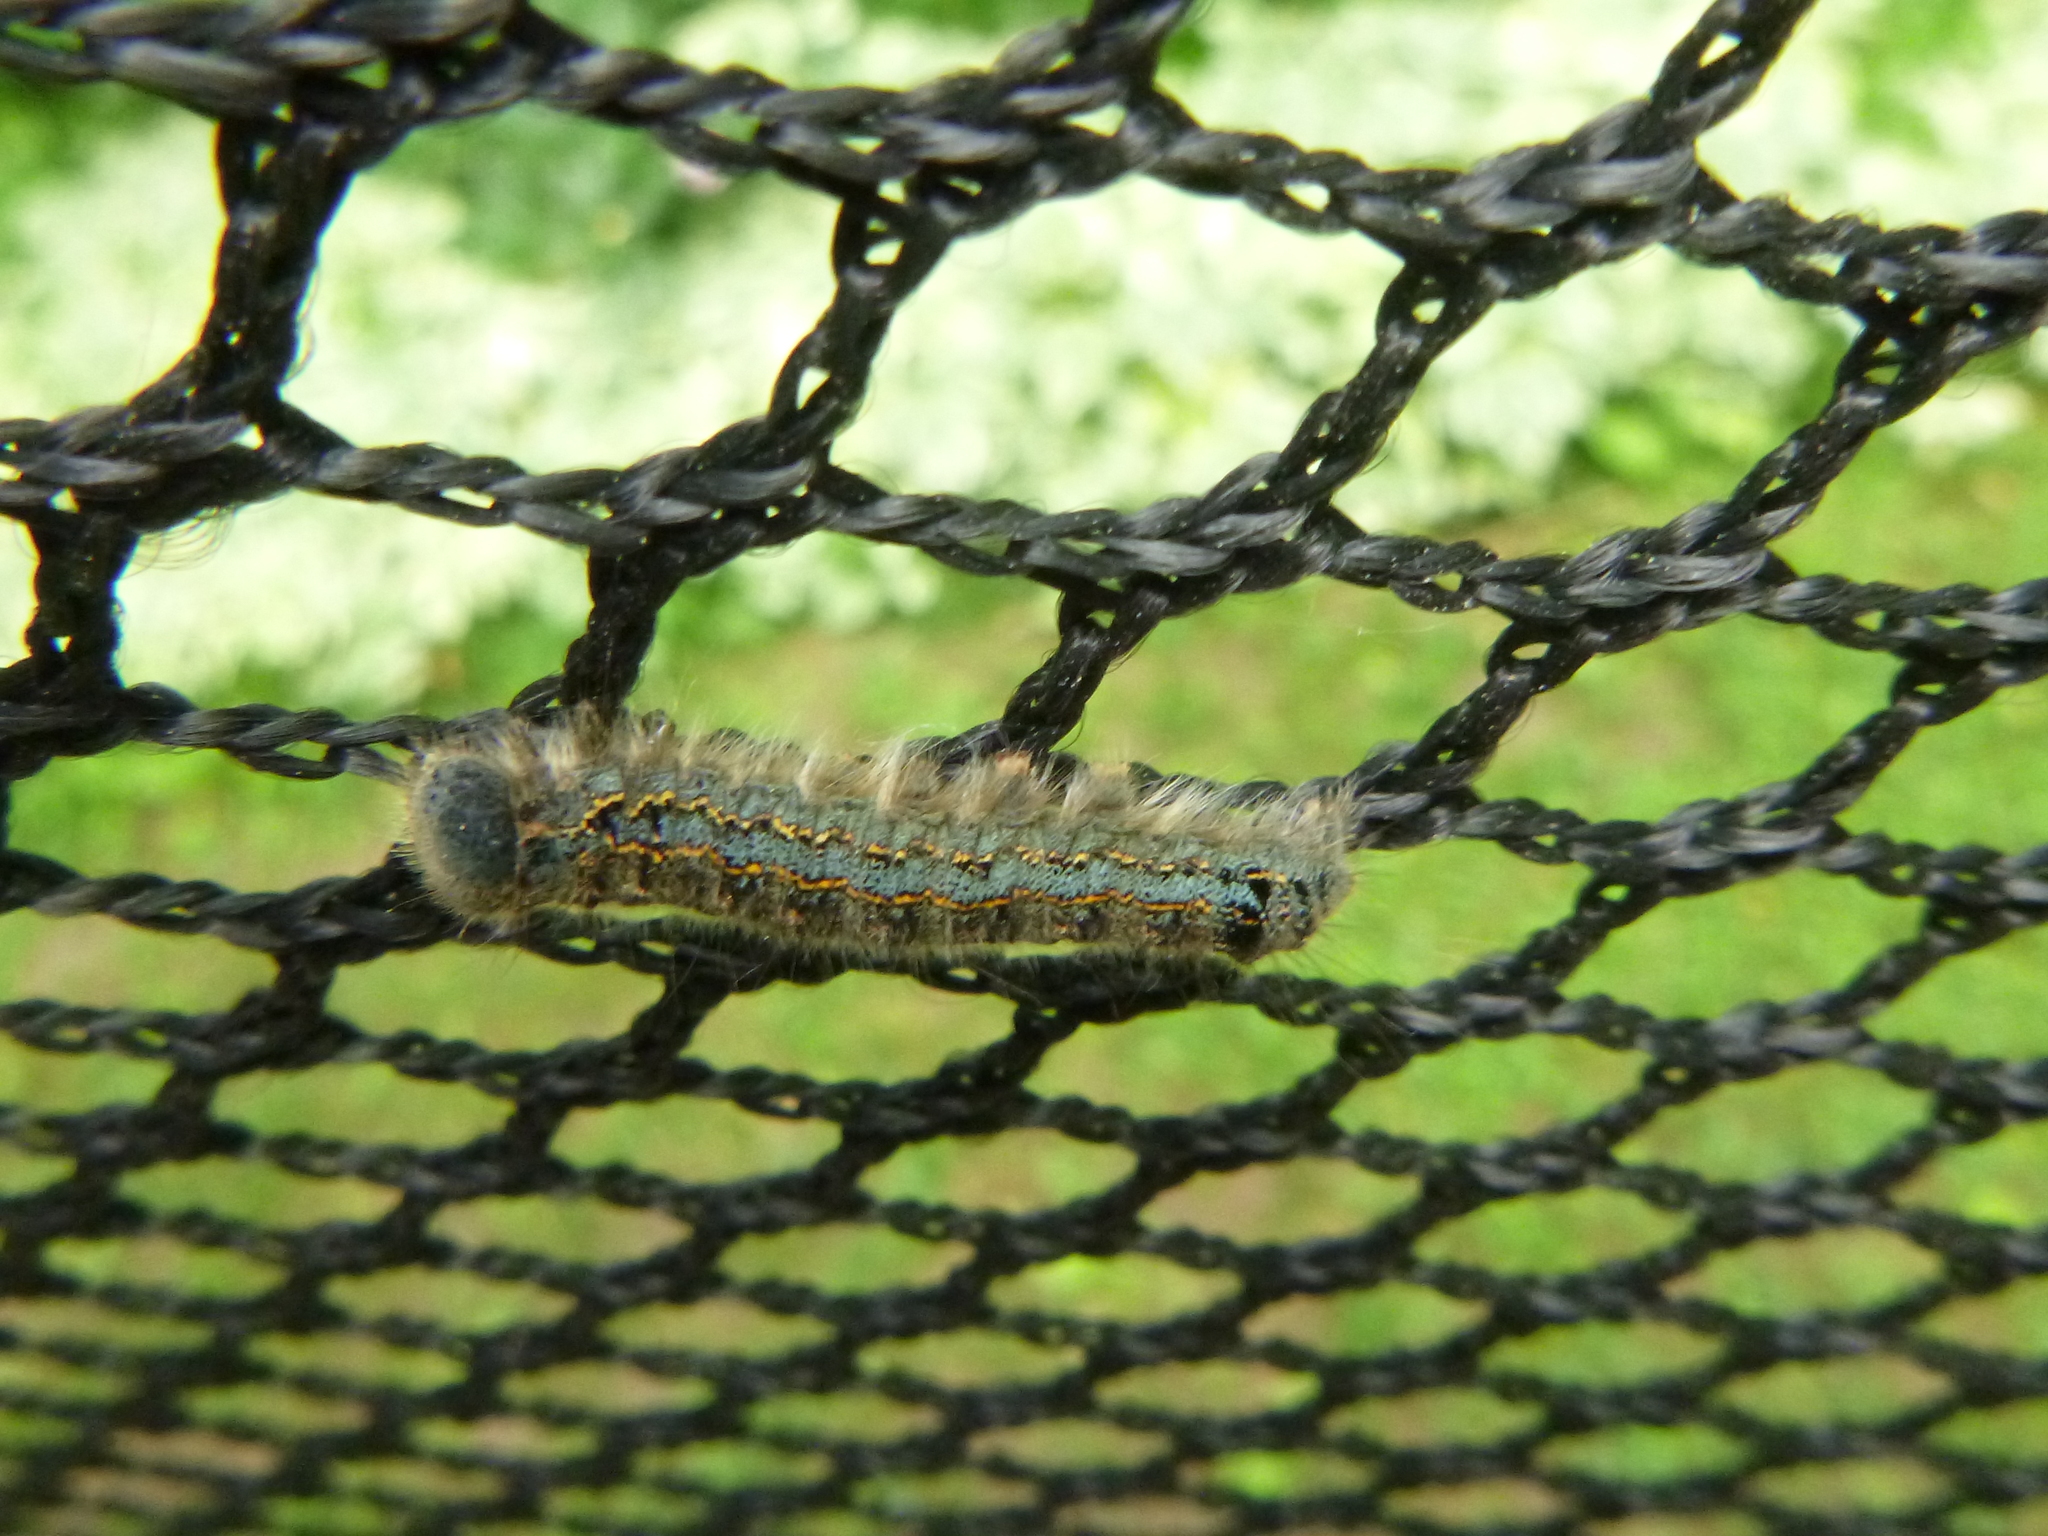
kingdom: Animalia
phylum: Arthropoda
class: Insecta
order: Lepidoptera
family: Lasiocampidae
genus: Malacosoma
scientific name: Malacosoma disstria
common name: Forest tent caterpillar
